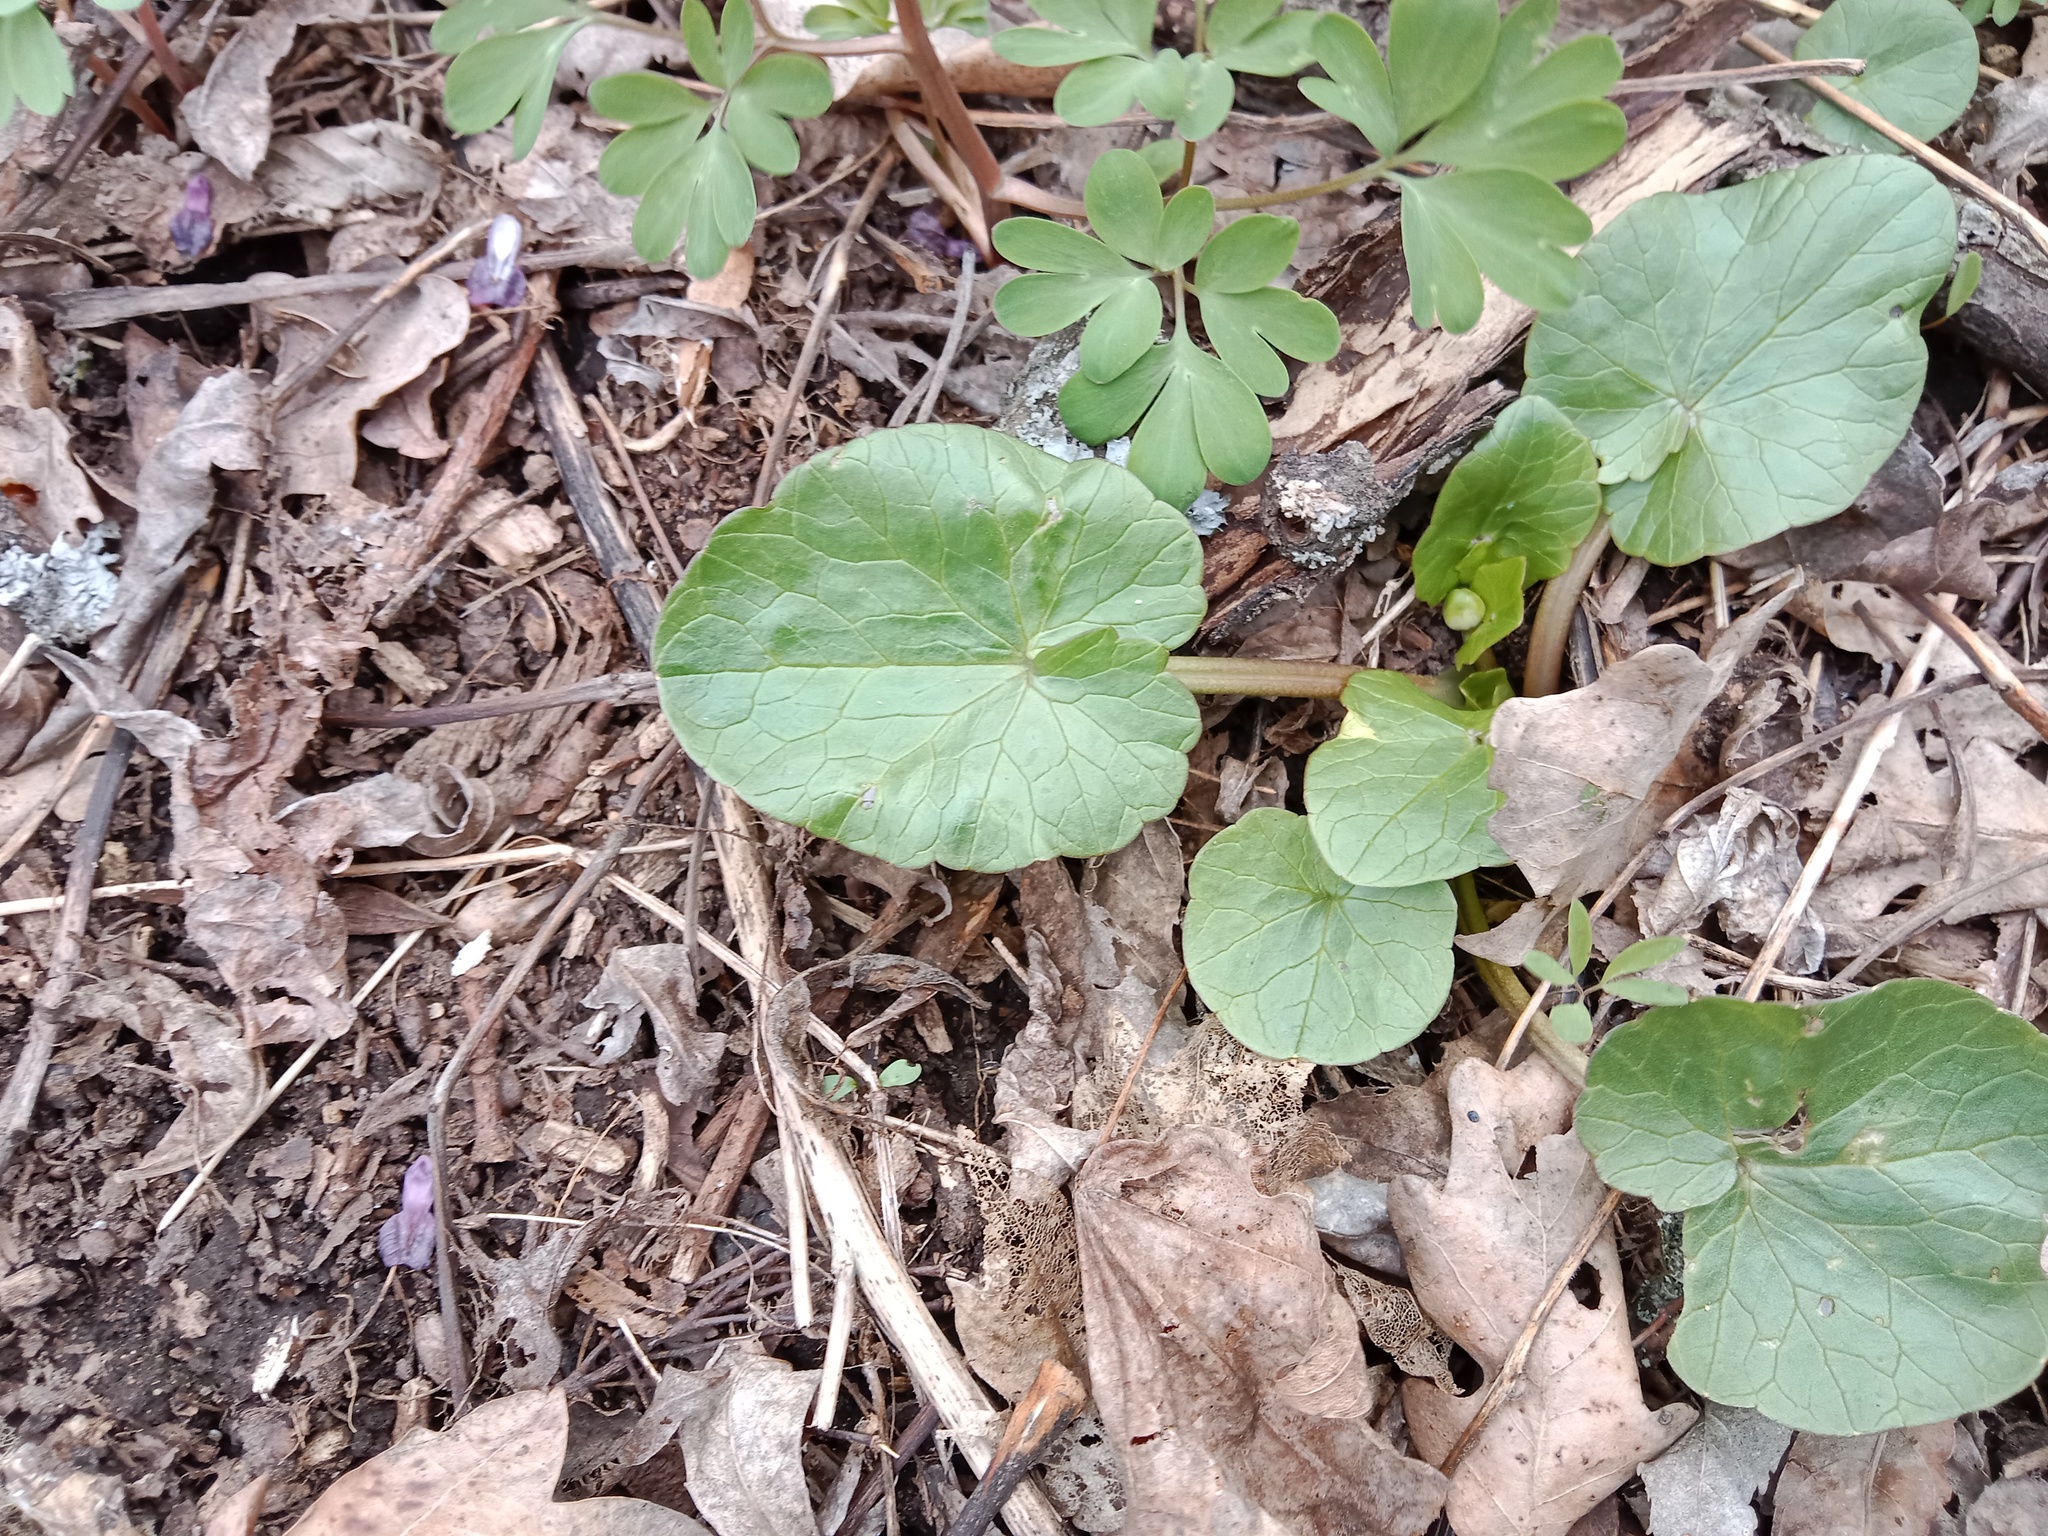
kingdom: Plantae
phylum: Tracheophyta
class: Magnoliopsida
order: Ranunculales
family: Ranunculaceae
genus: Ficaria
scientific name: Ficaria verna
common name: Lesser celandine
